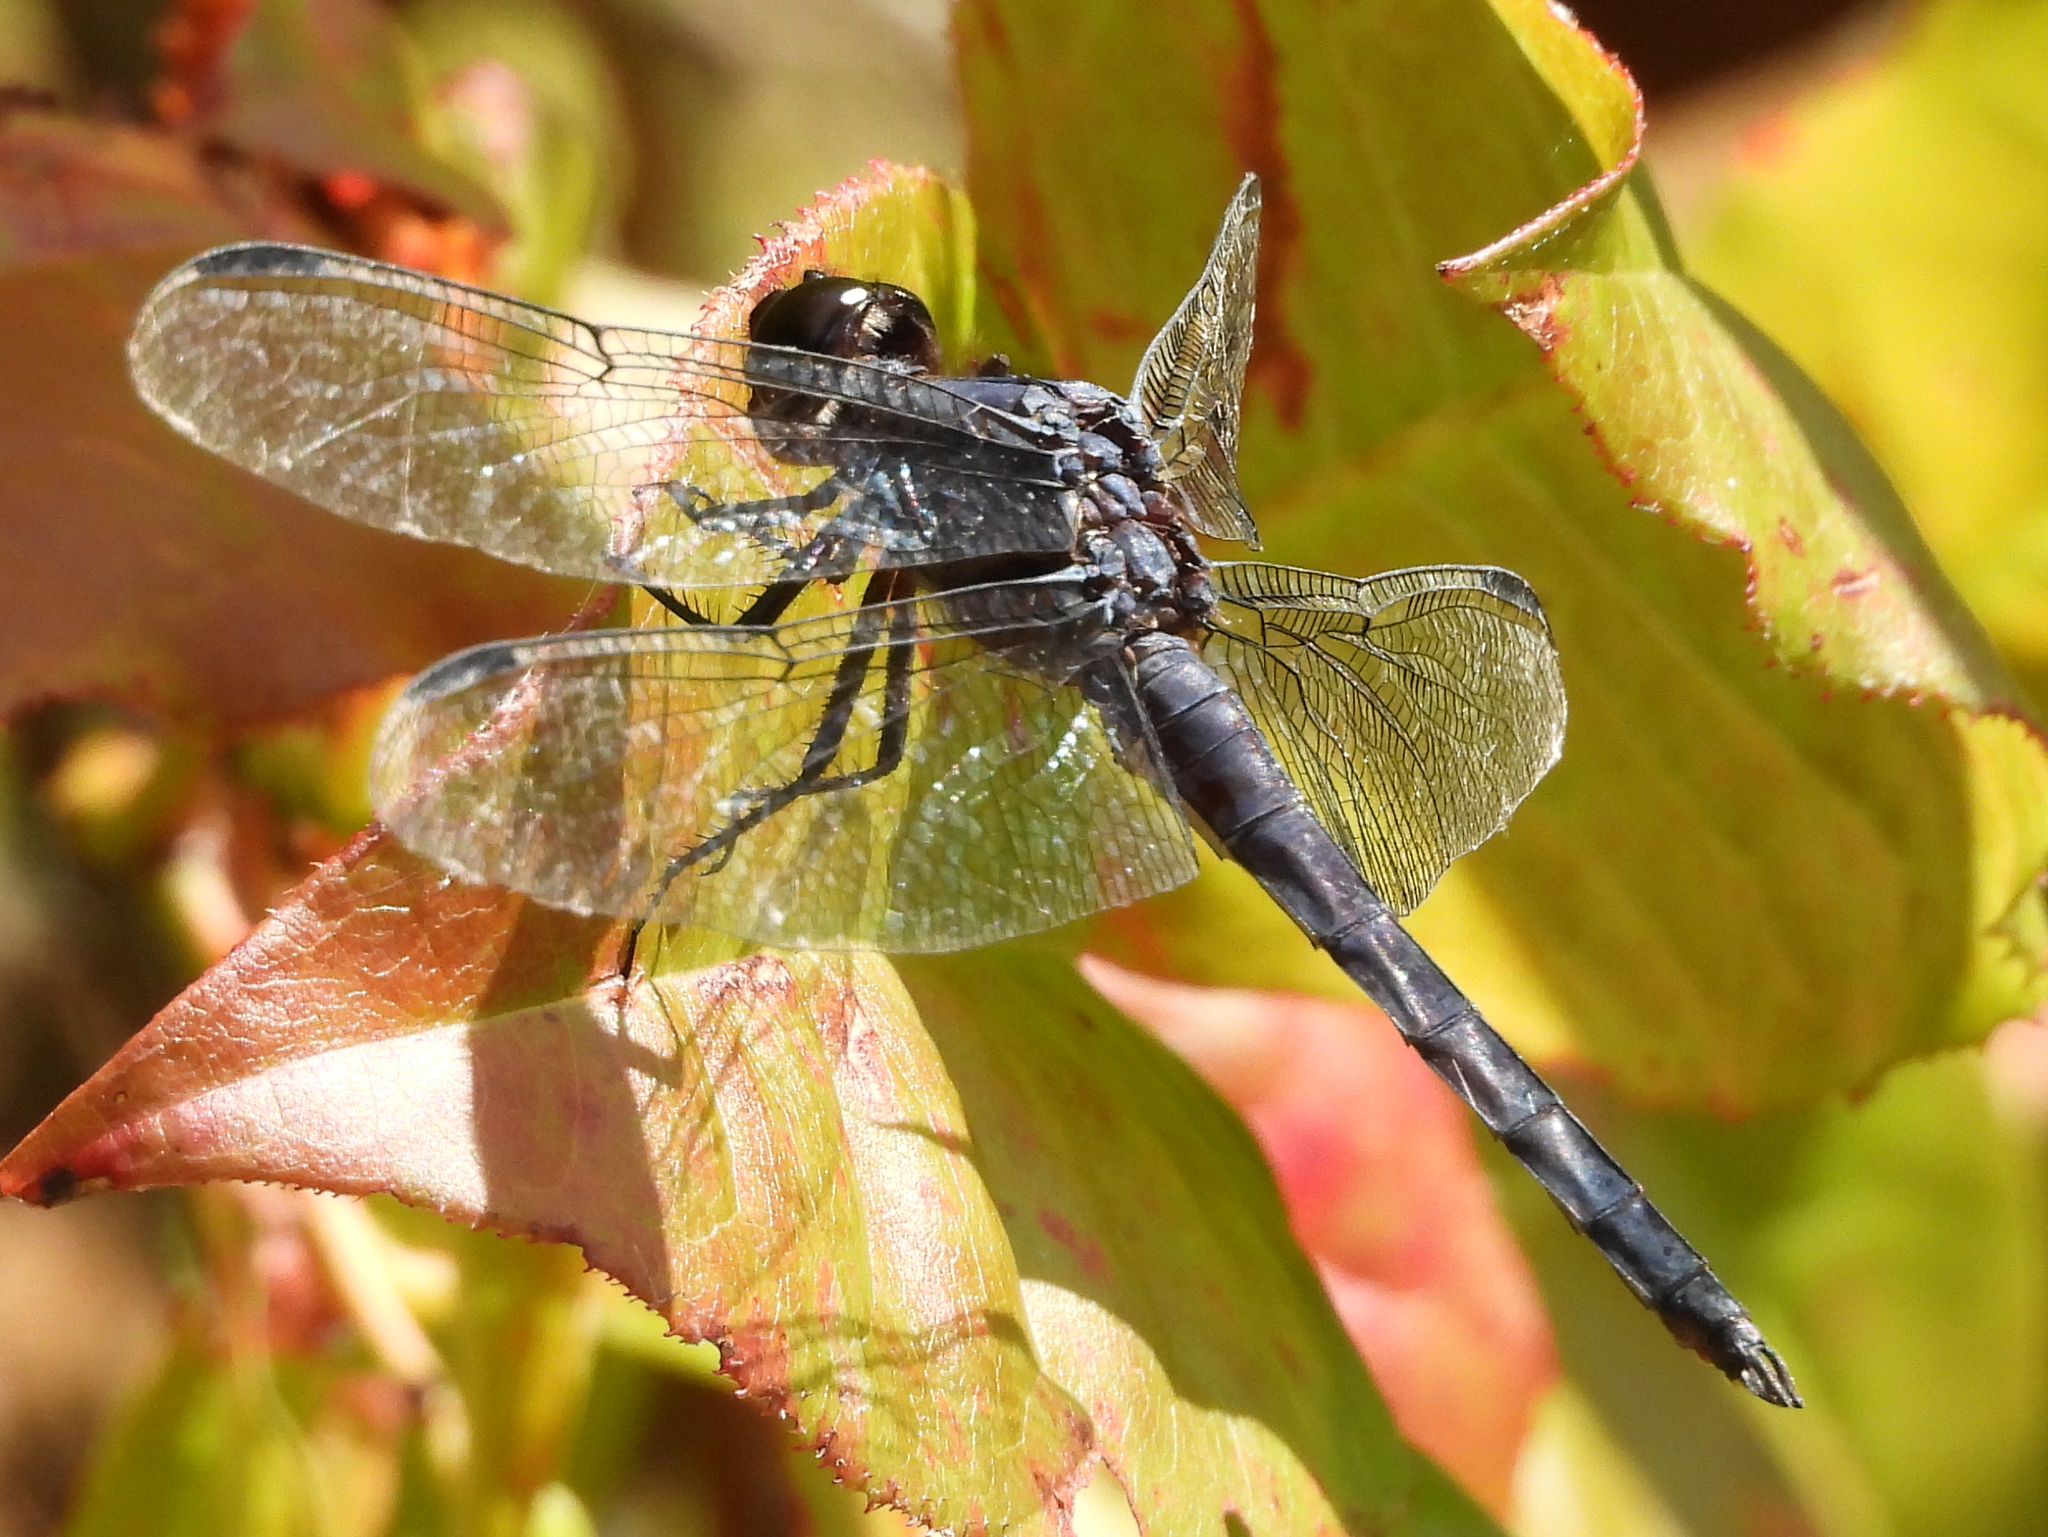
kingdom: Animalia
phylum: Arthropoda
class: Insecta
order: Odonata
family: Libellulidae
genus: Libellula
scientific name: Libellula incesta
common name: Slaty skimmer
